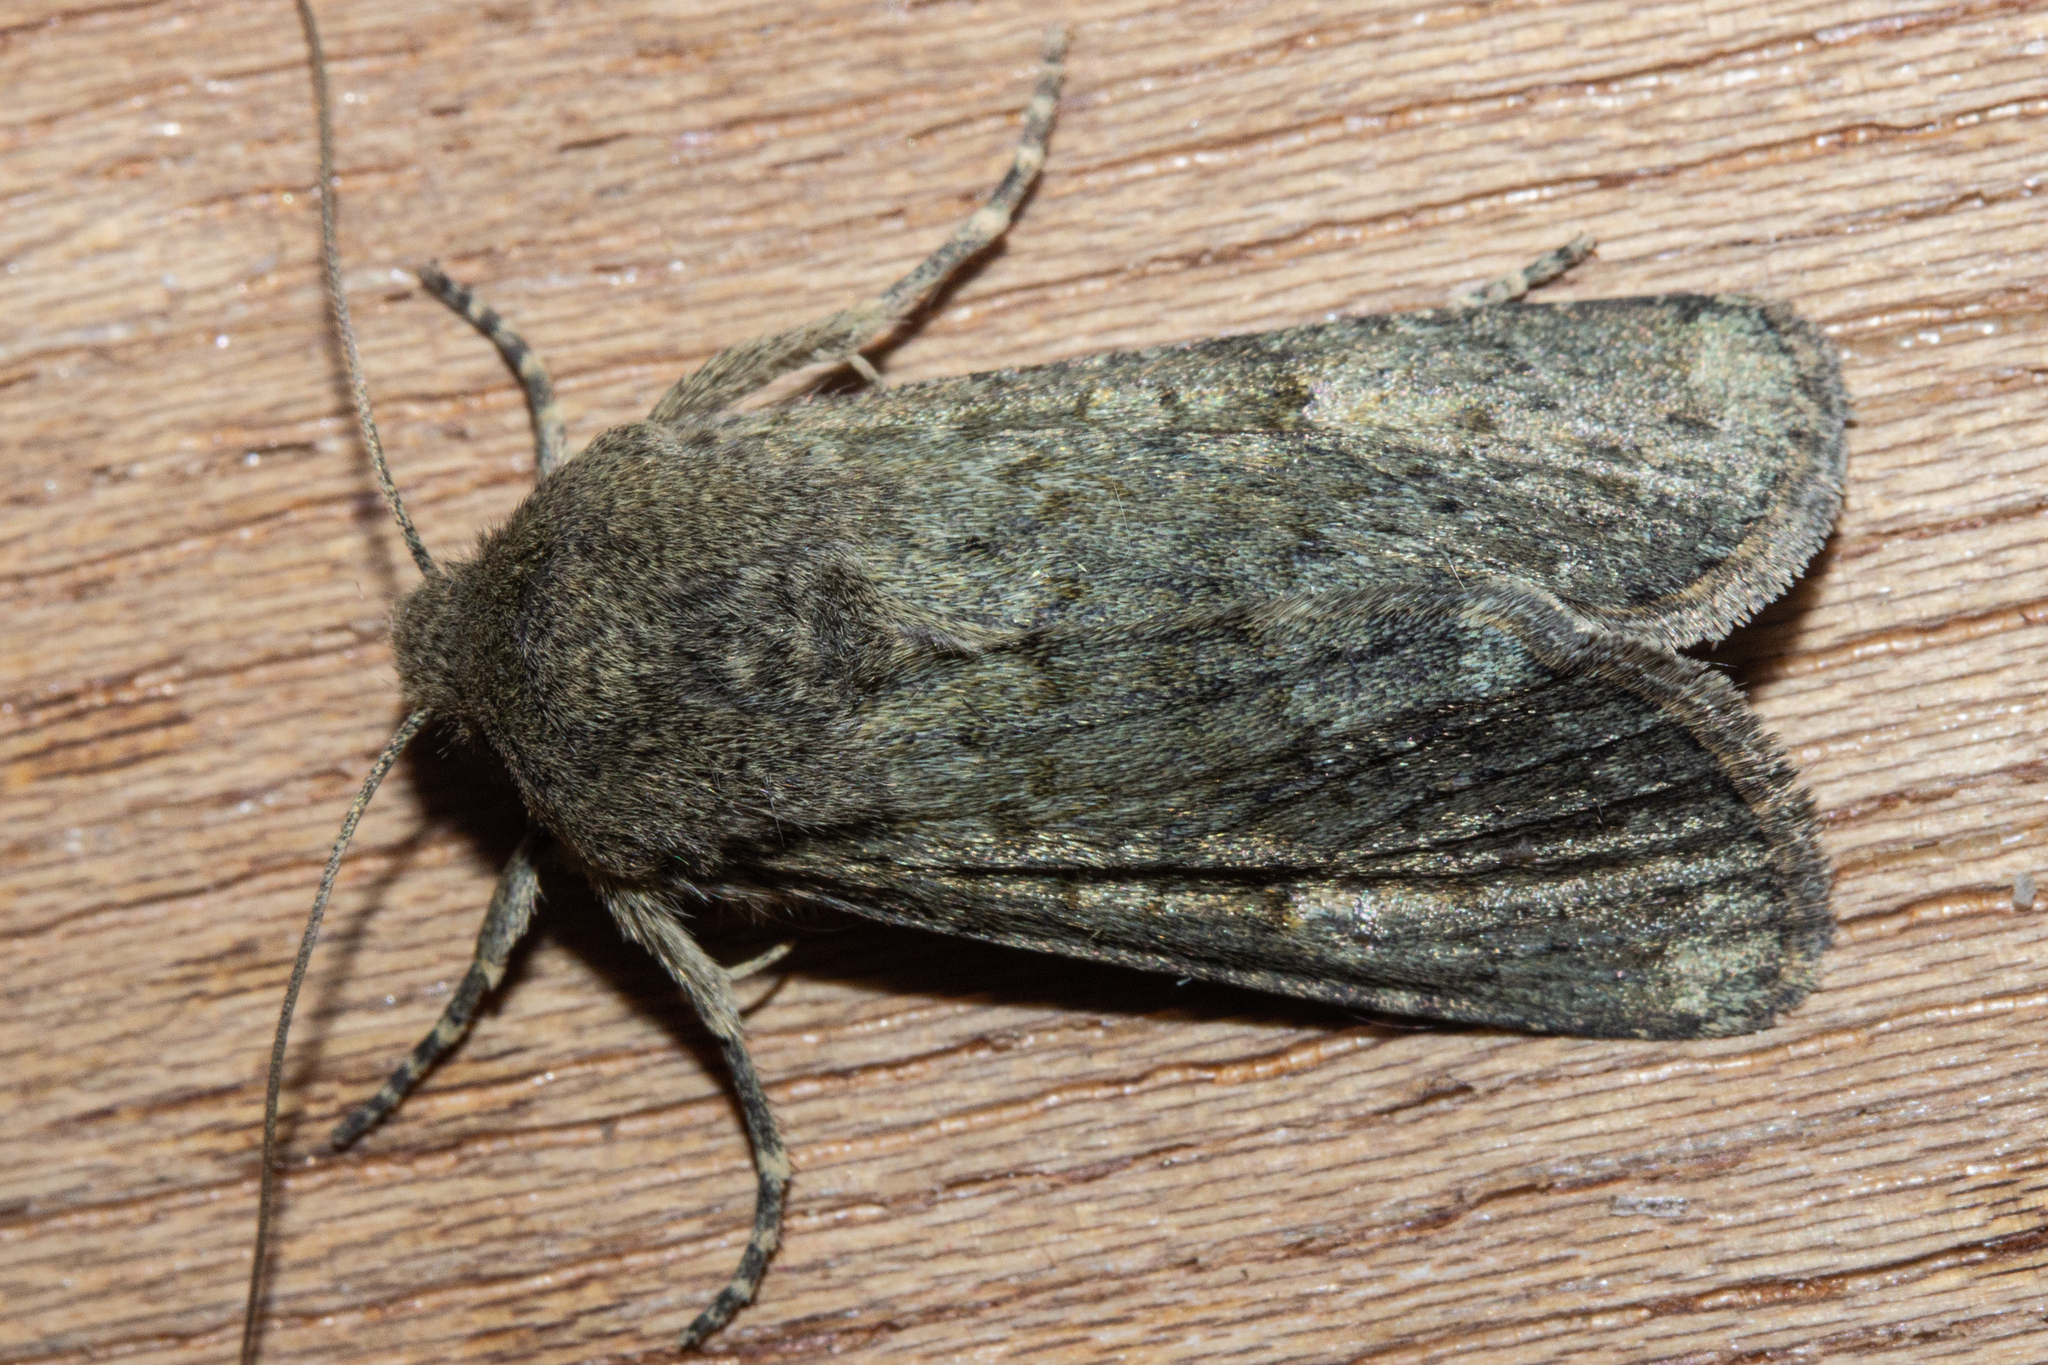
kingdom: Animalia
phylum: Arthropoda
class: Insecta
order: Lepidoptera
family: Noctuidae
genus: Ichneutica
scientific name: Ichneutica moderata
